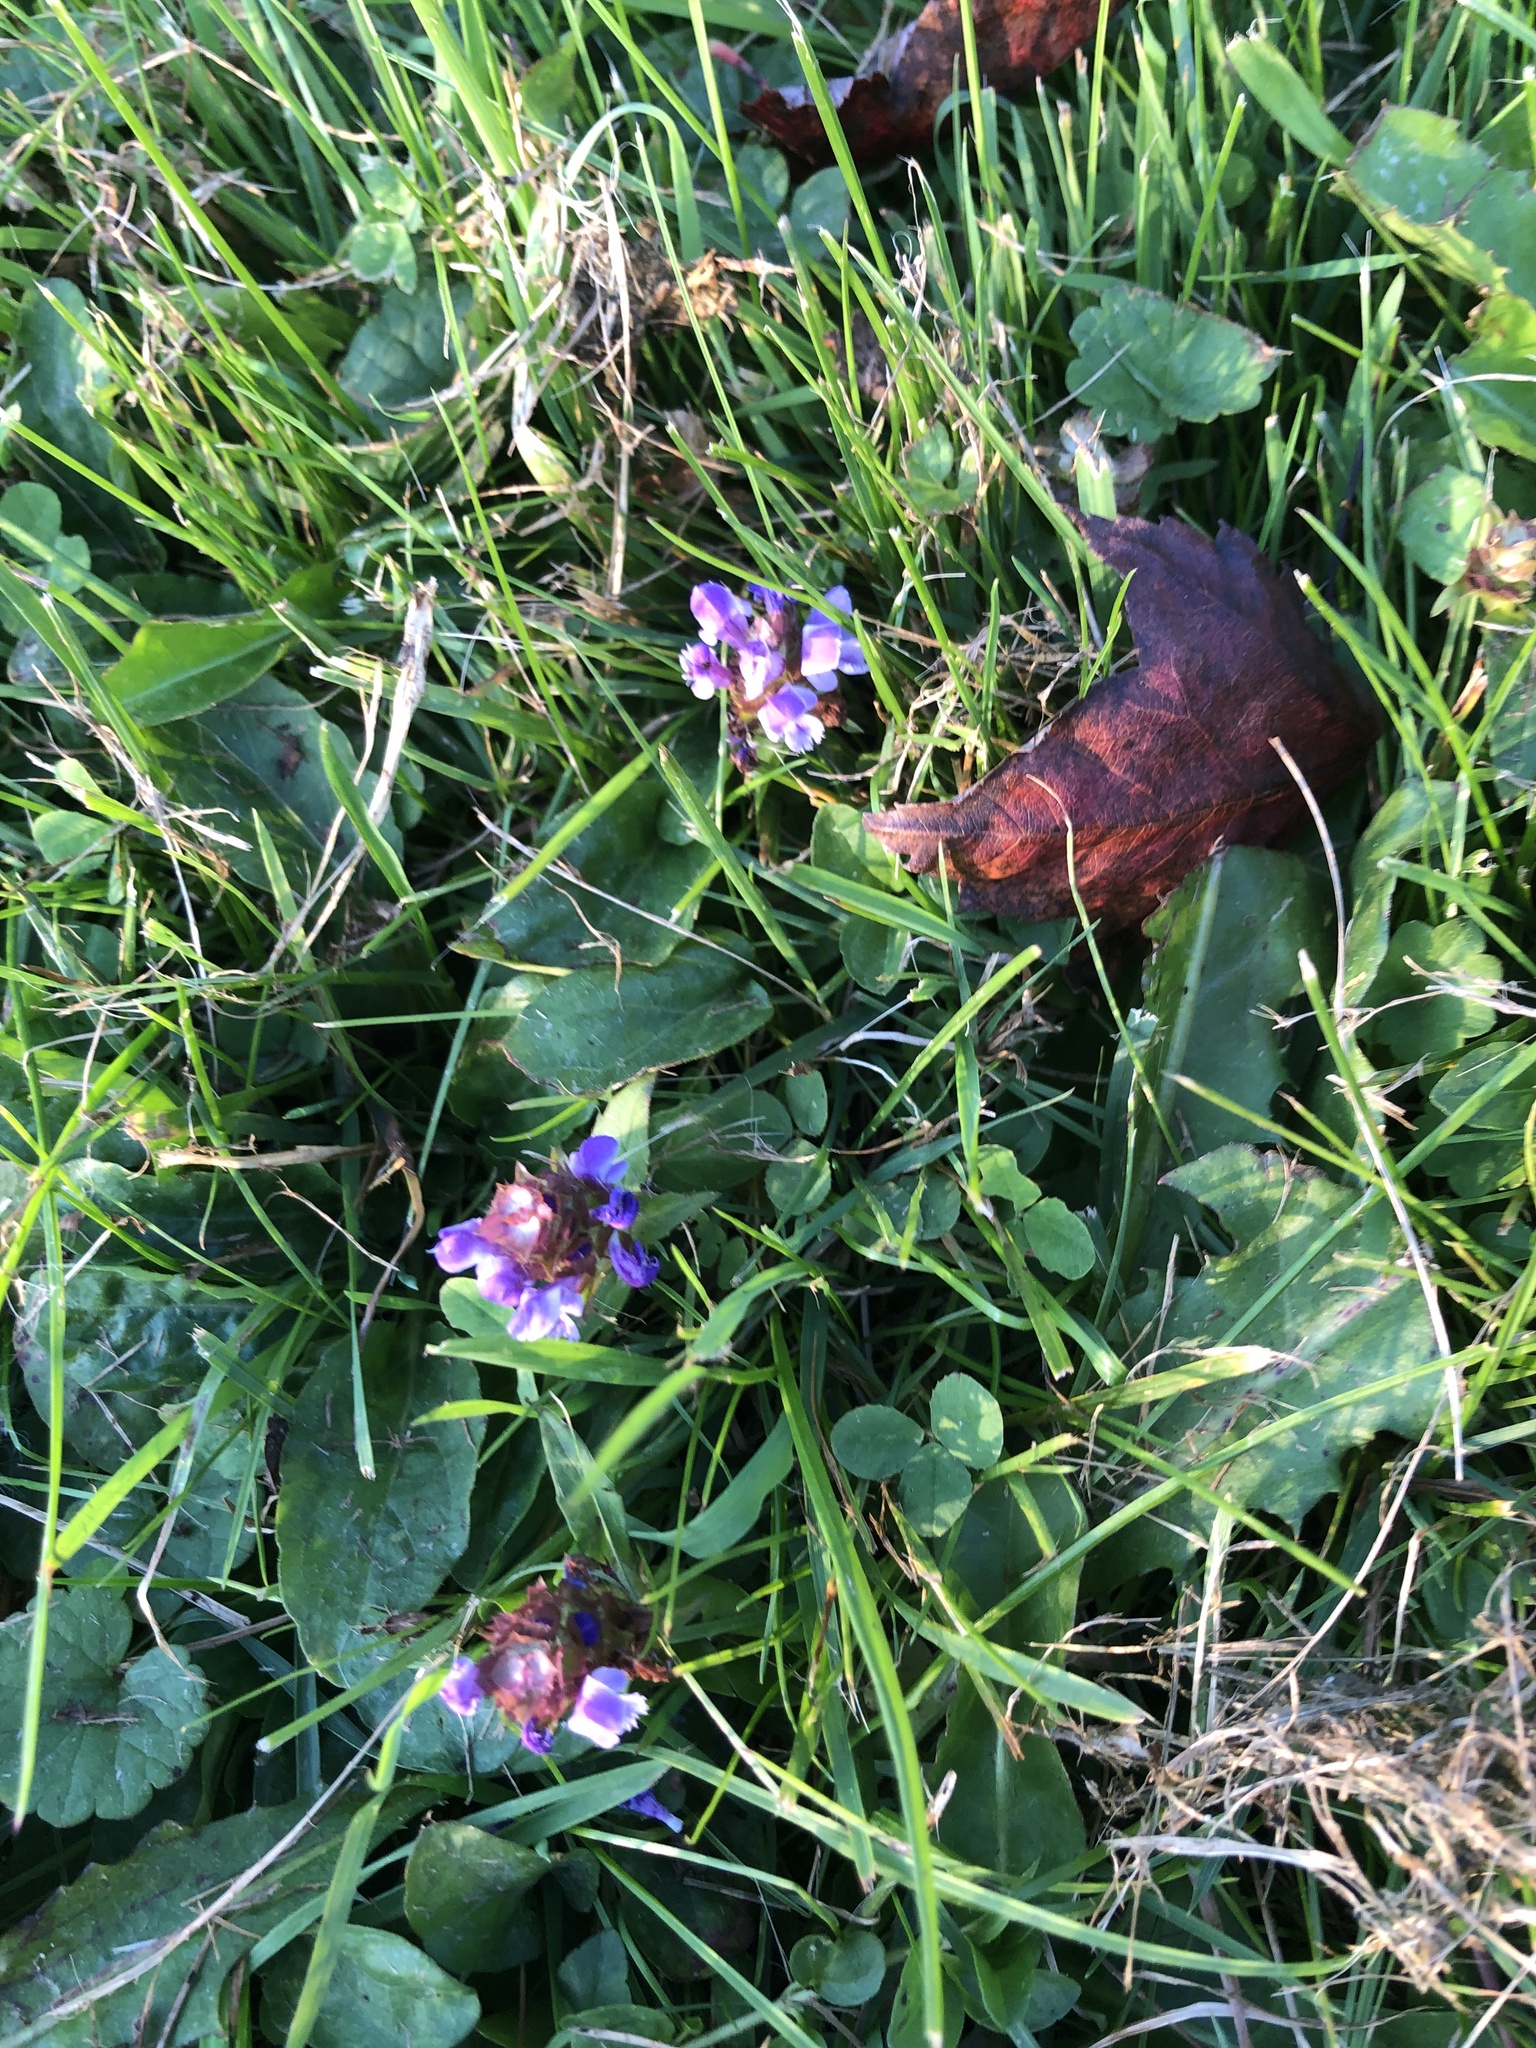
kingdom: Plantae
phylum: Tracheophyta
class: Magnoliopsida
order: Lamiales
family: Lamiaceae
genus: Prunella
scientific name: Prunella vulgaris
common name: Heal-all
